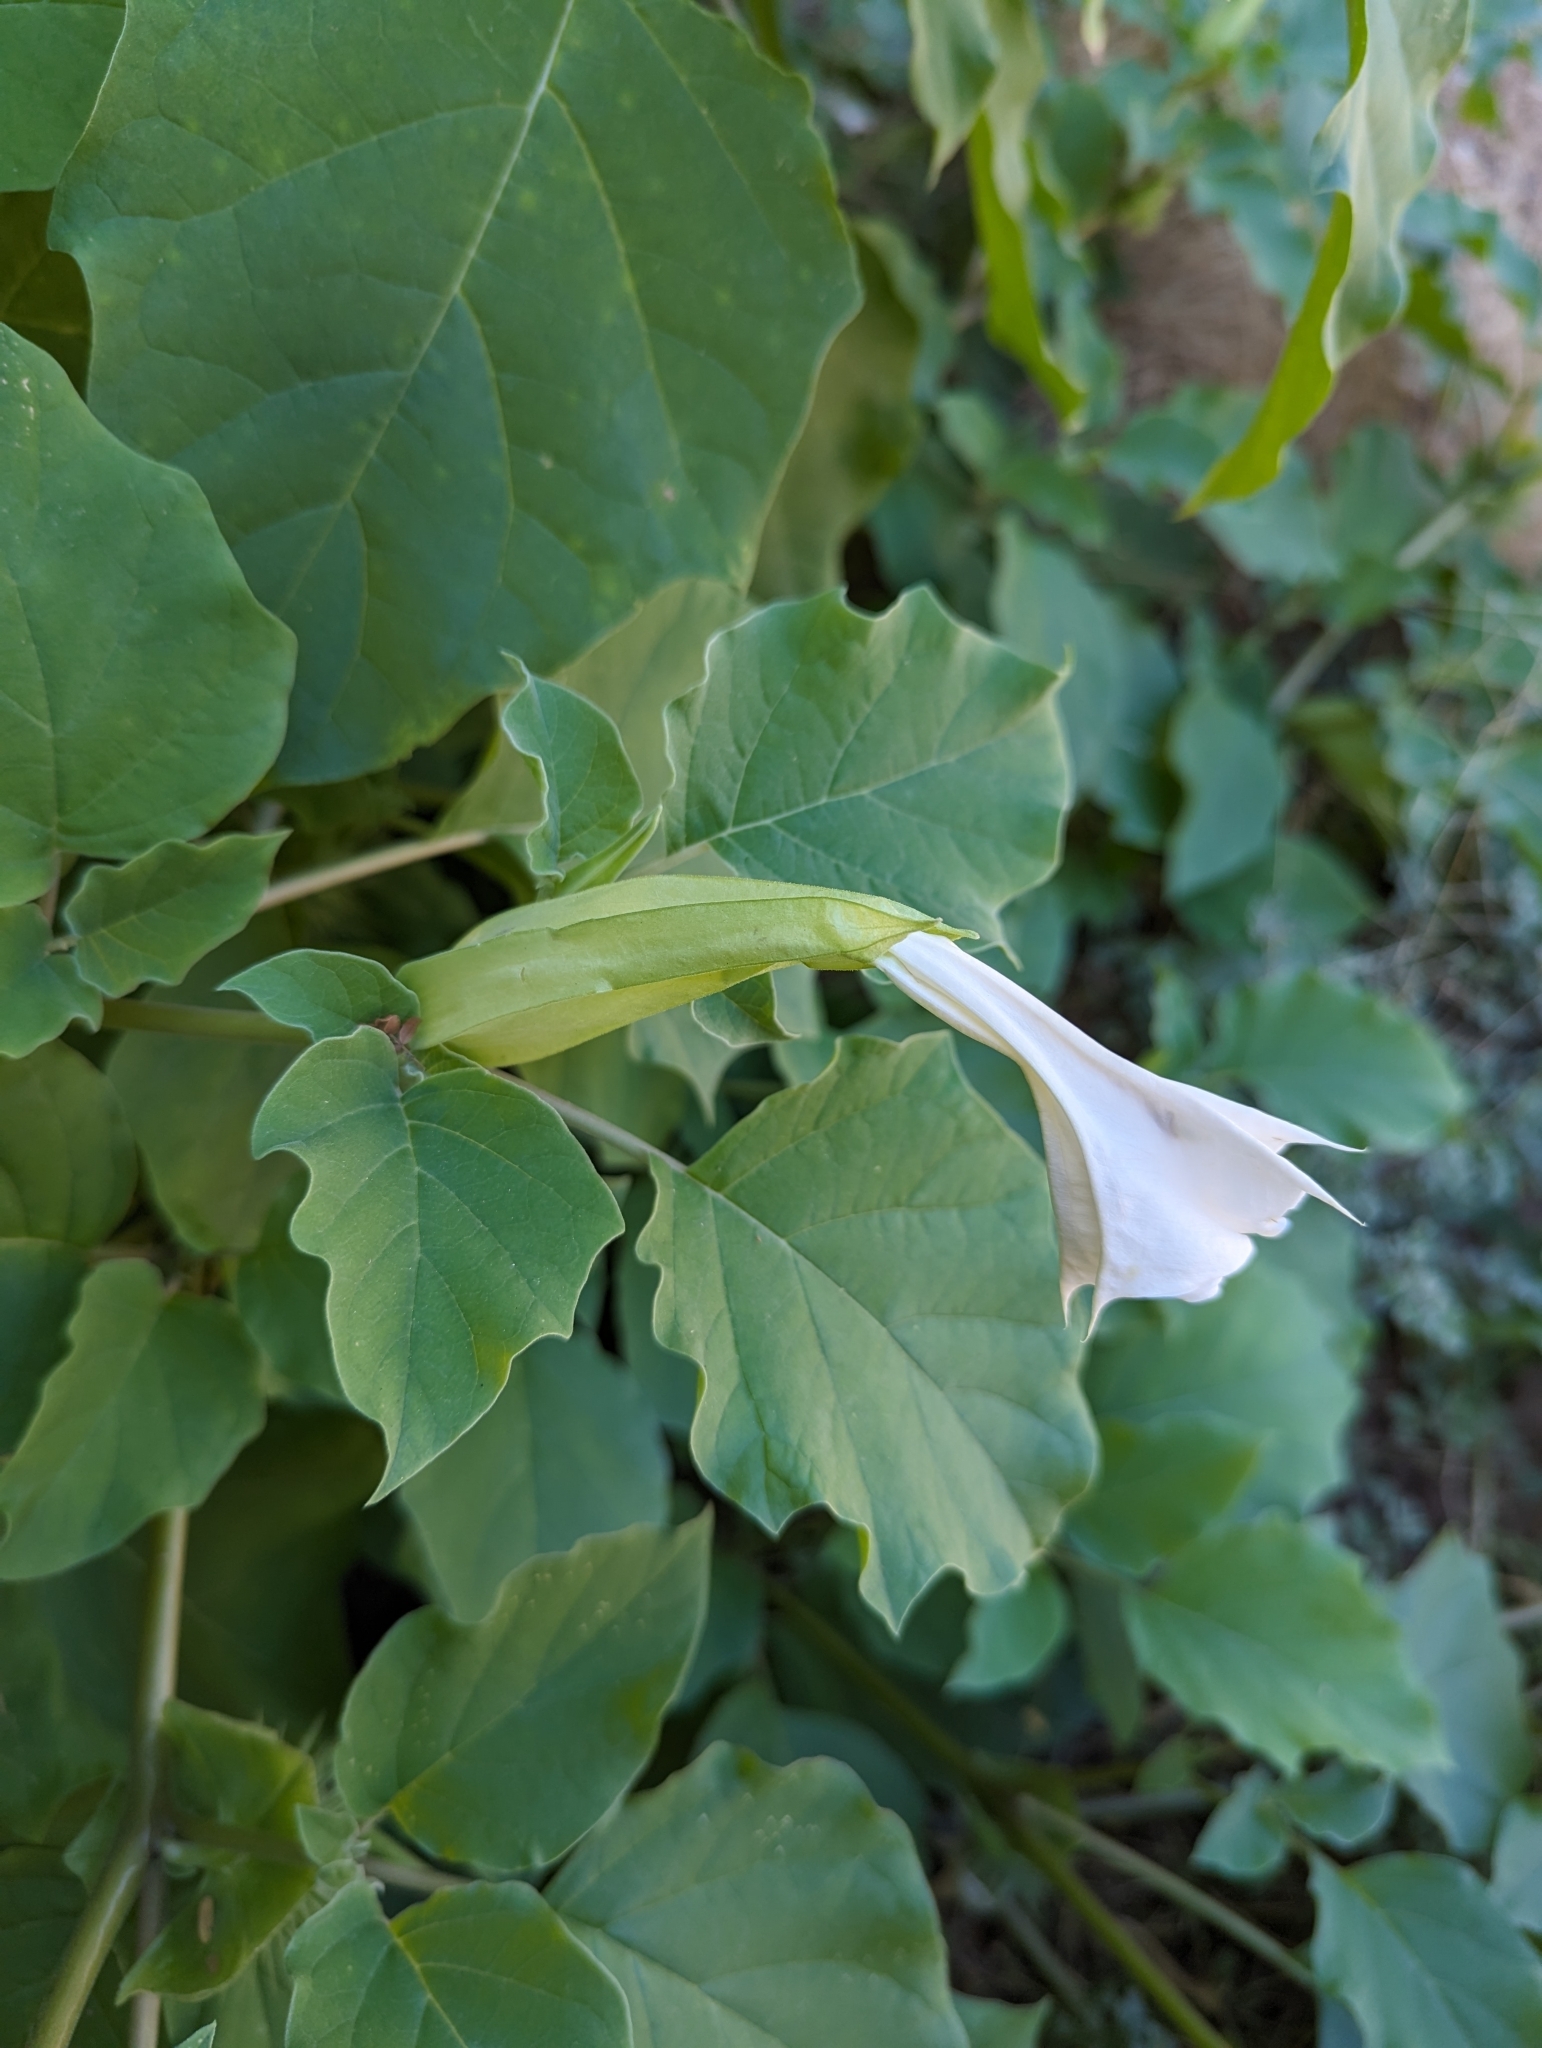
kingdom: Plantae
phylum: Tracheophyta
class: Magnoliopsida
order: Solanales
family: Solanaceae
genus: Datura
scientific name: Datura discolor
